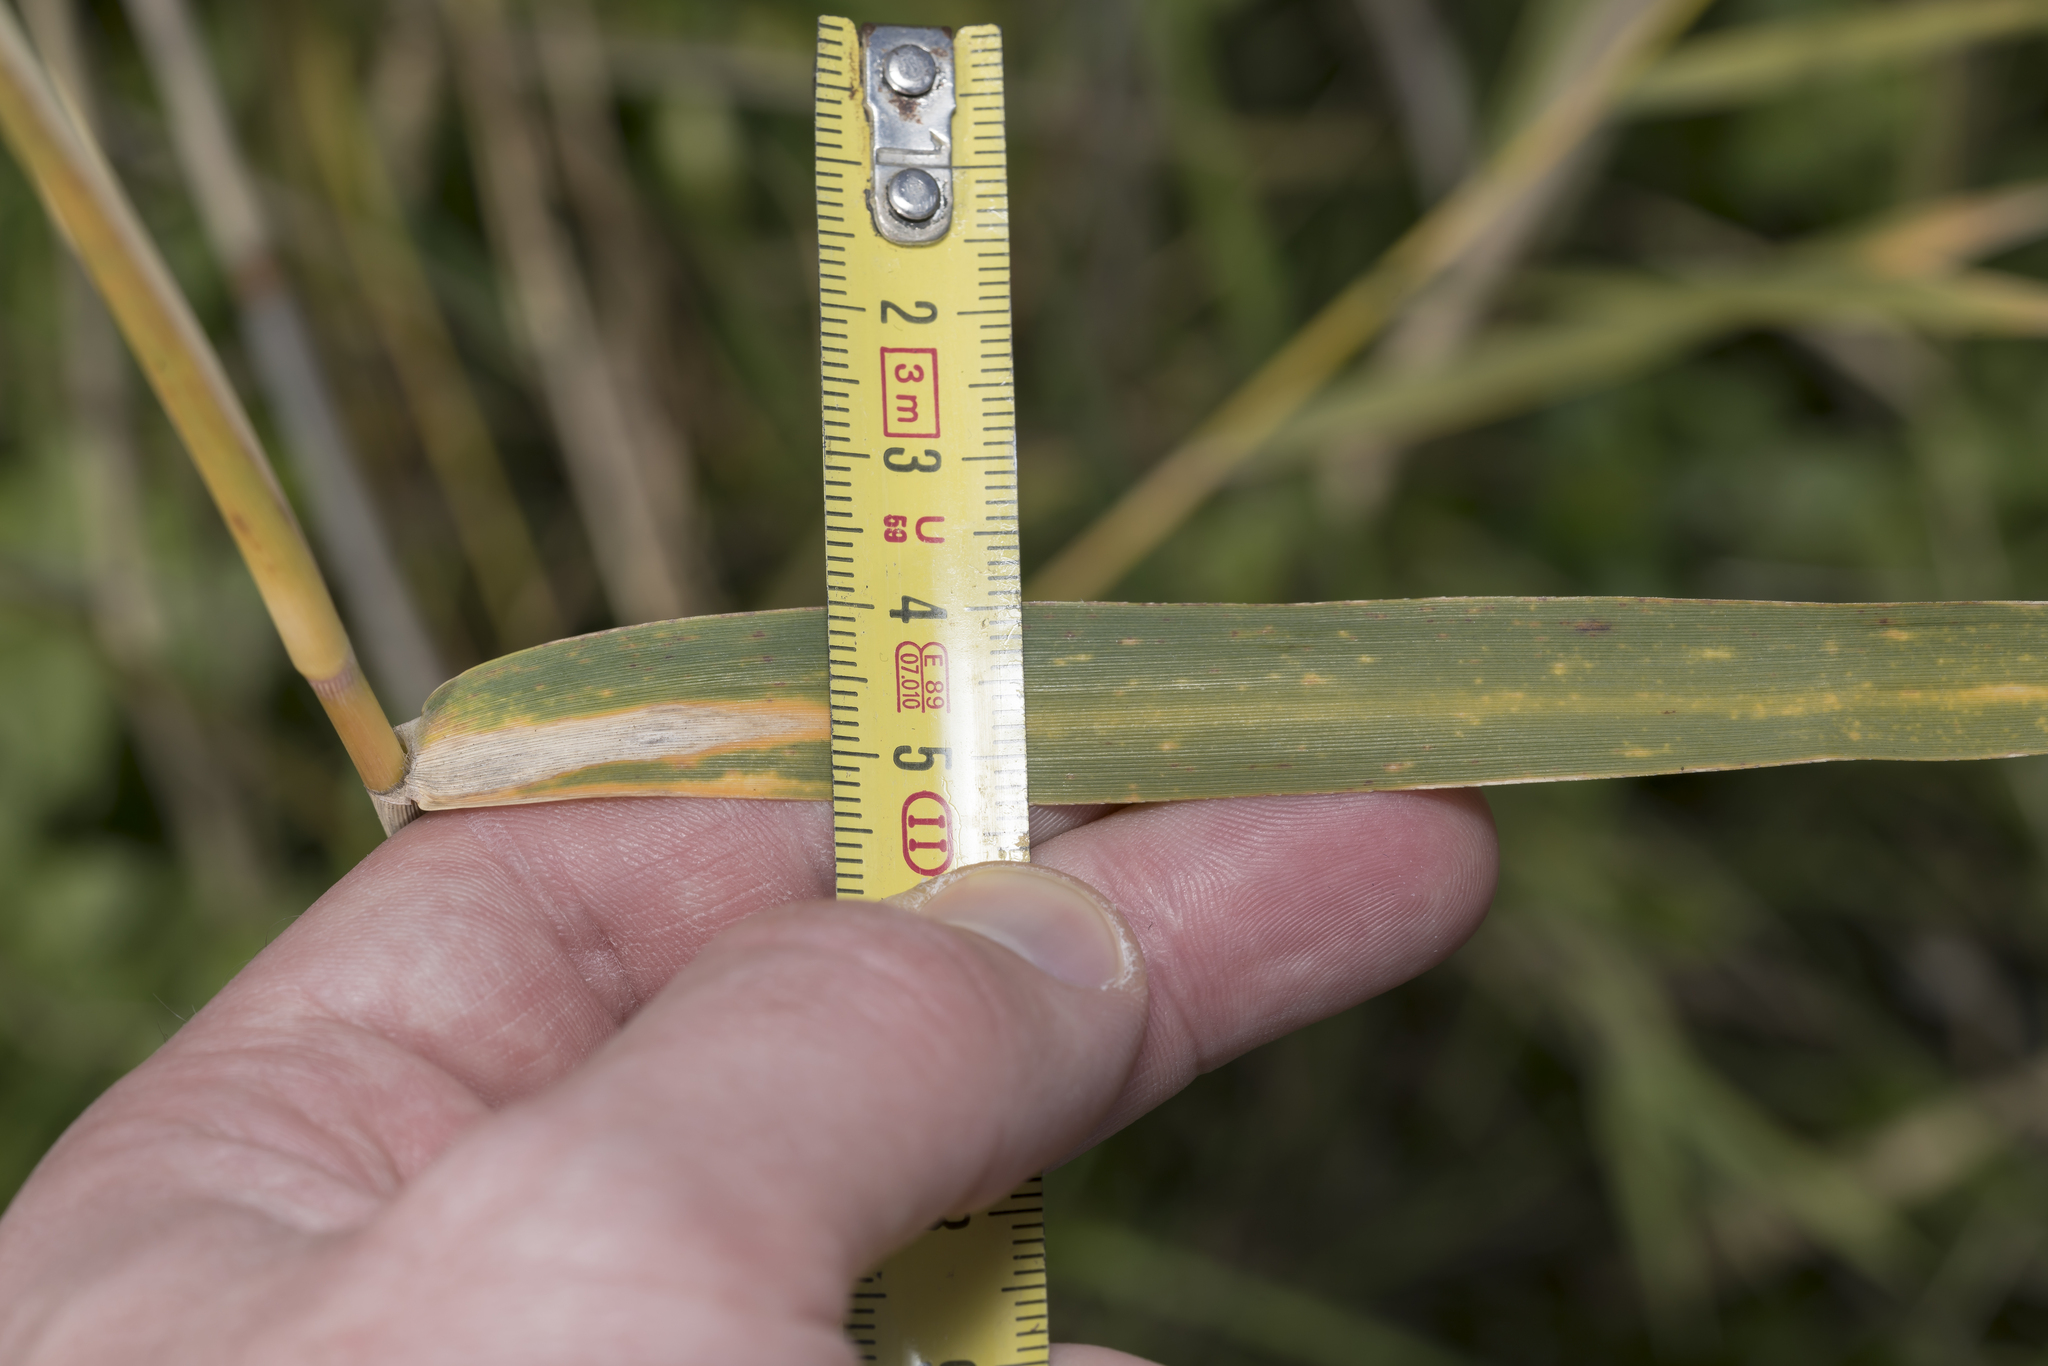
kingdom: Plantae
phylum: Tracheophyta
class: Liliopsida
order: Poales
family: Poaceae
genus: Phragmites
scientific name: Phragmites australis
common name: Common reed
